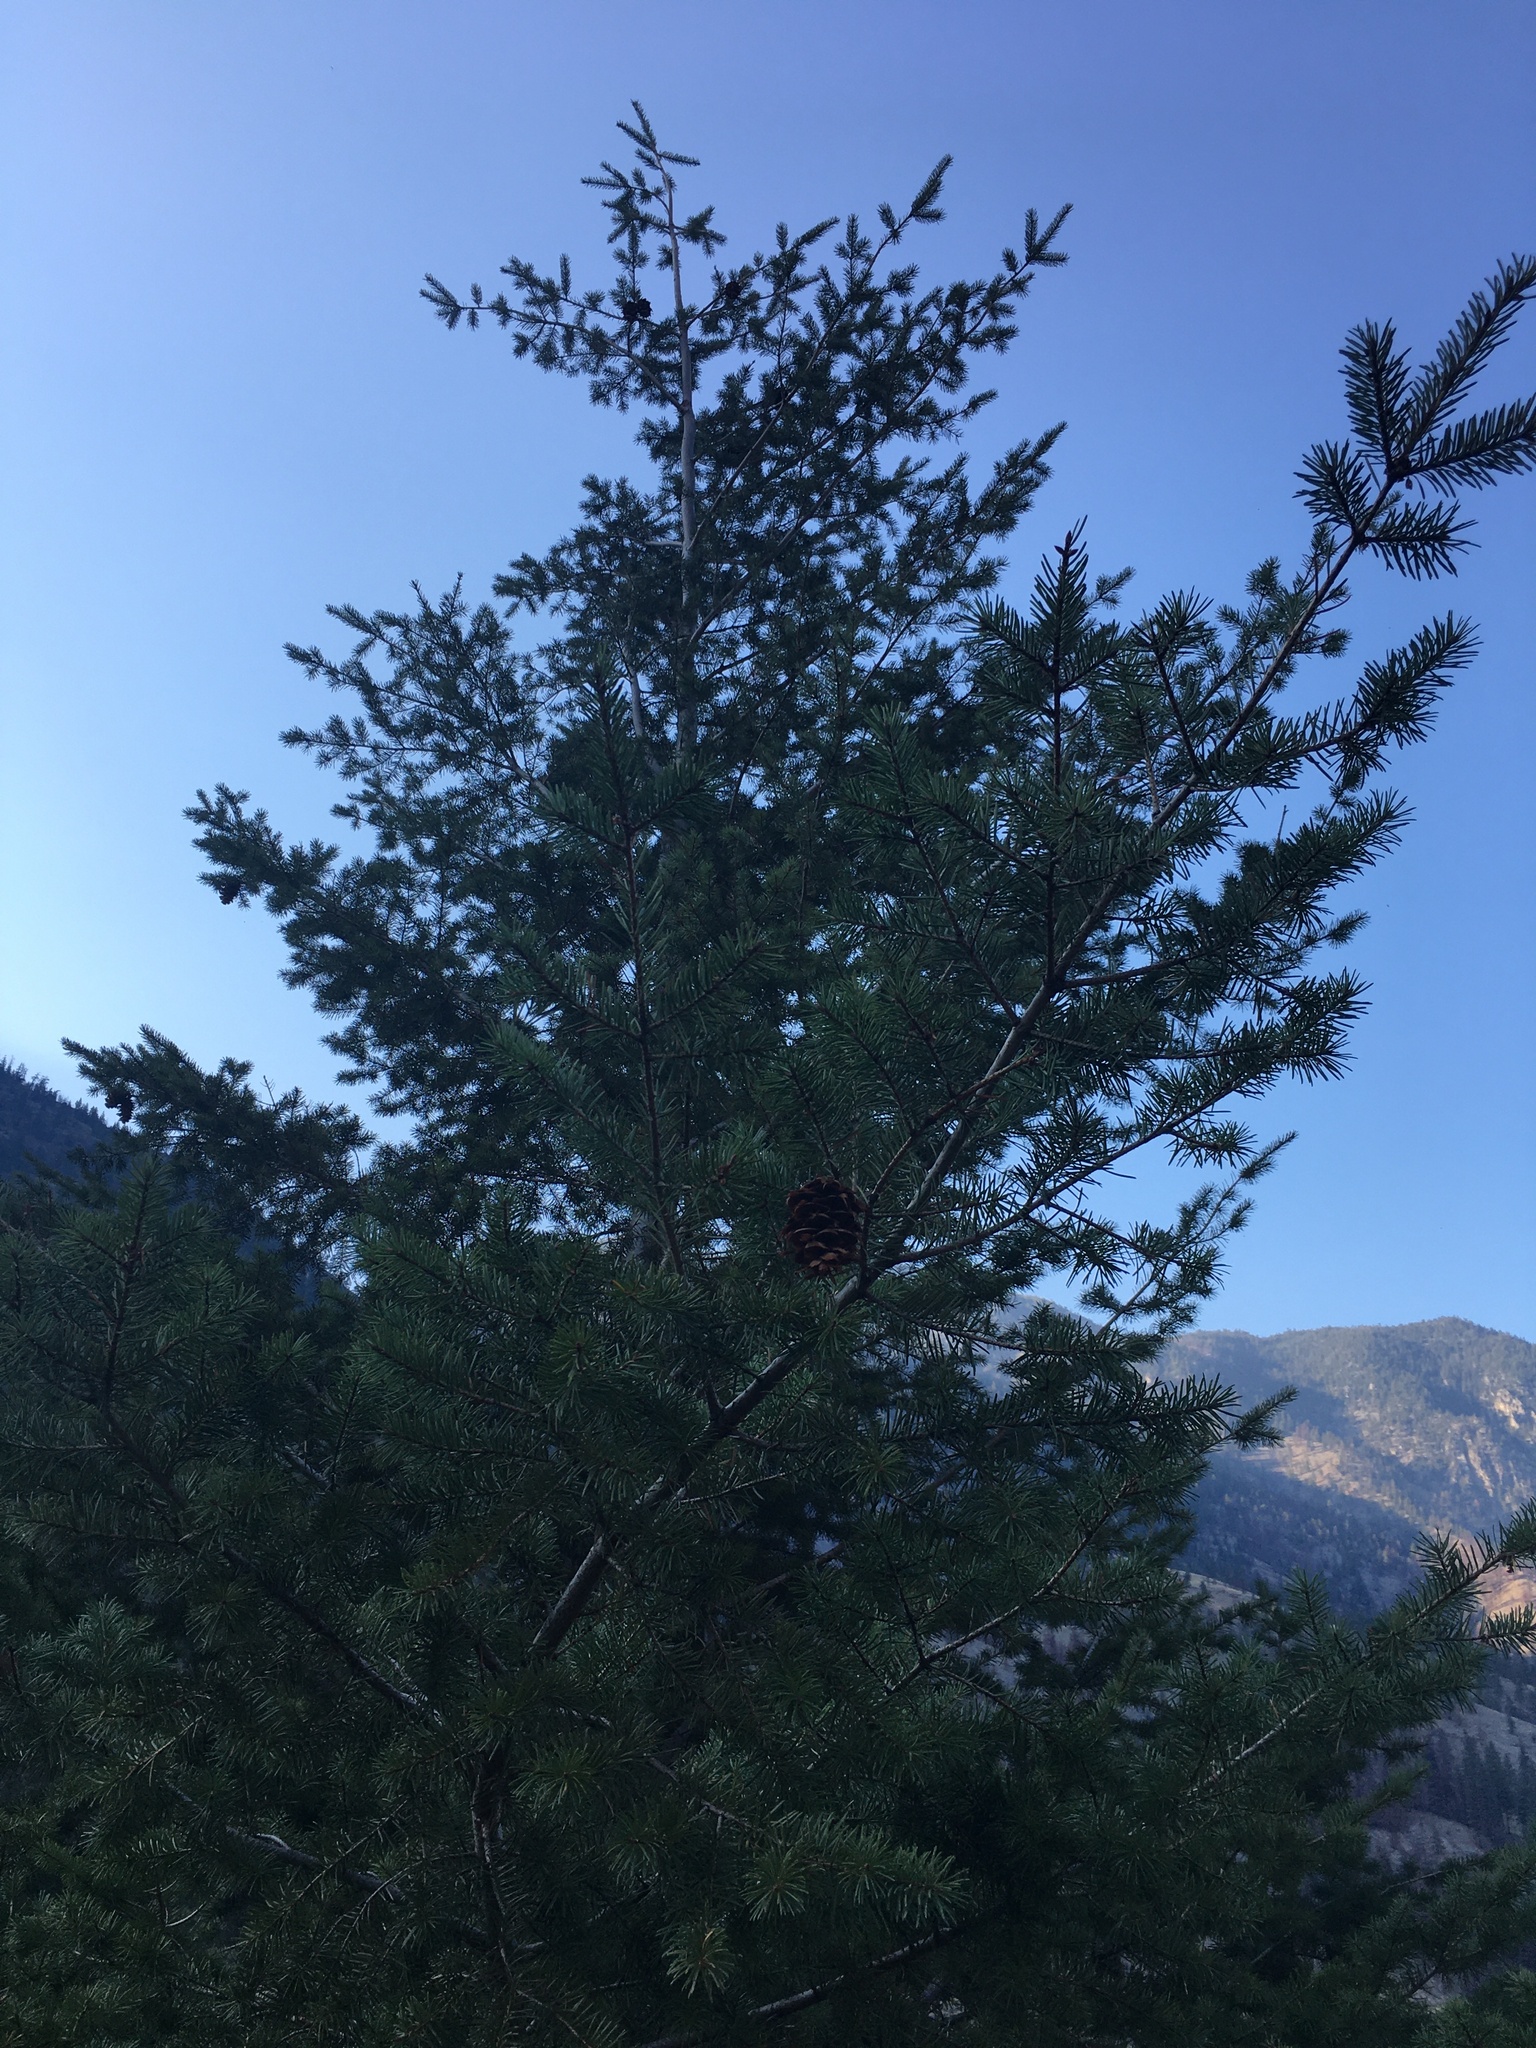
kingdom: Plantae
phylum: Tracheophyta
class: Pinopsida
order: Pinales
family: Pinaceae
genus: Pseudotsuga
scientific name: Pseudotsuga menziesii
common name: Douglas fir
